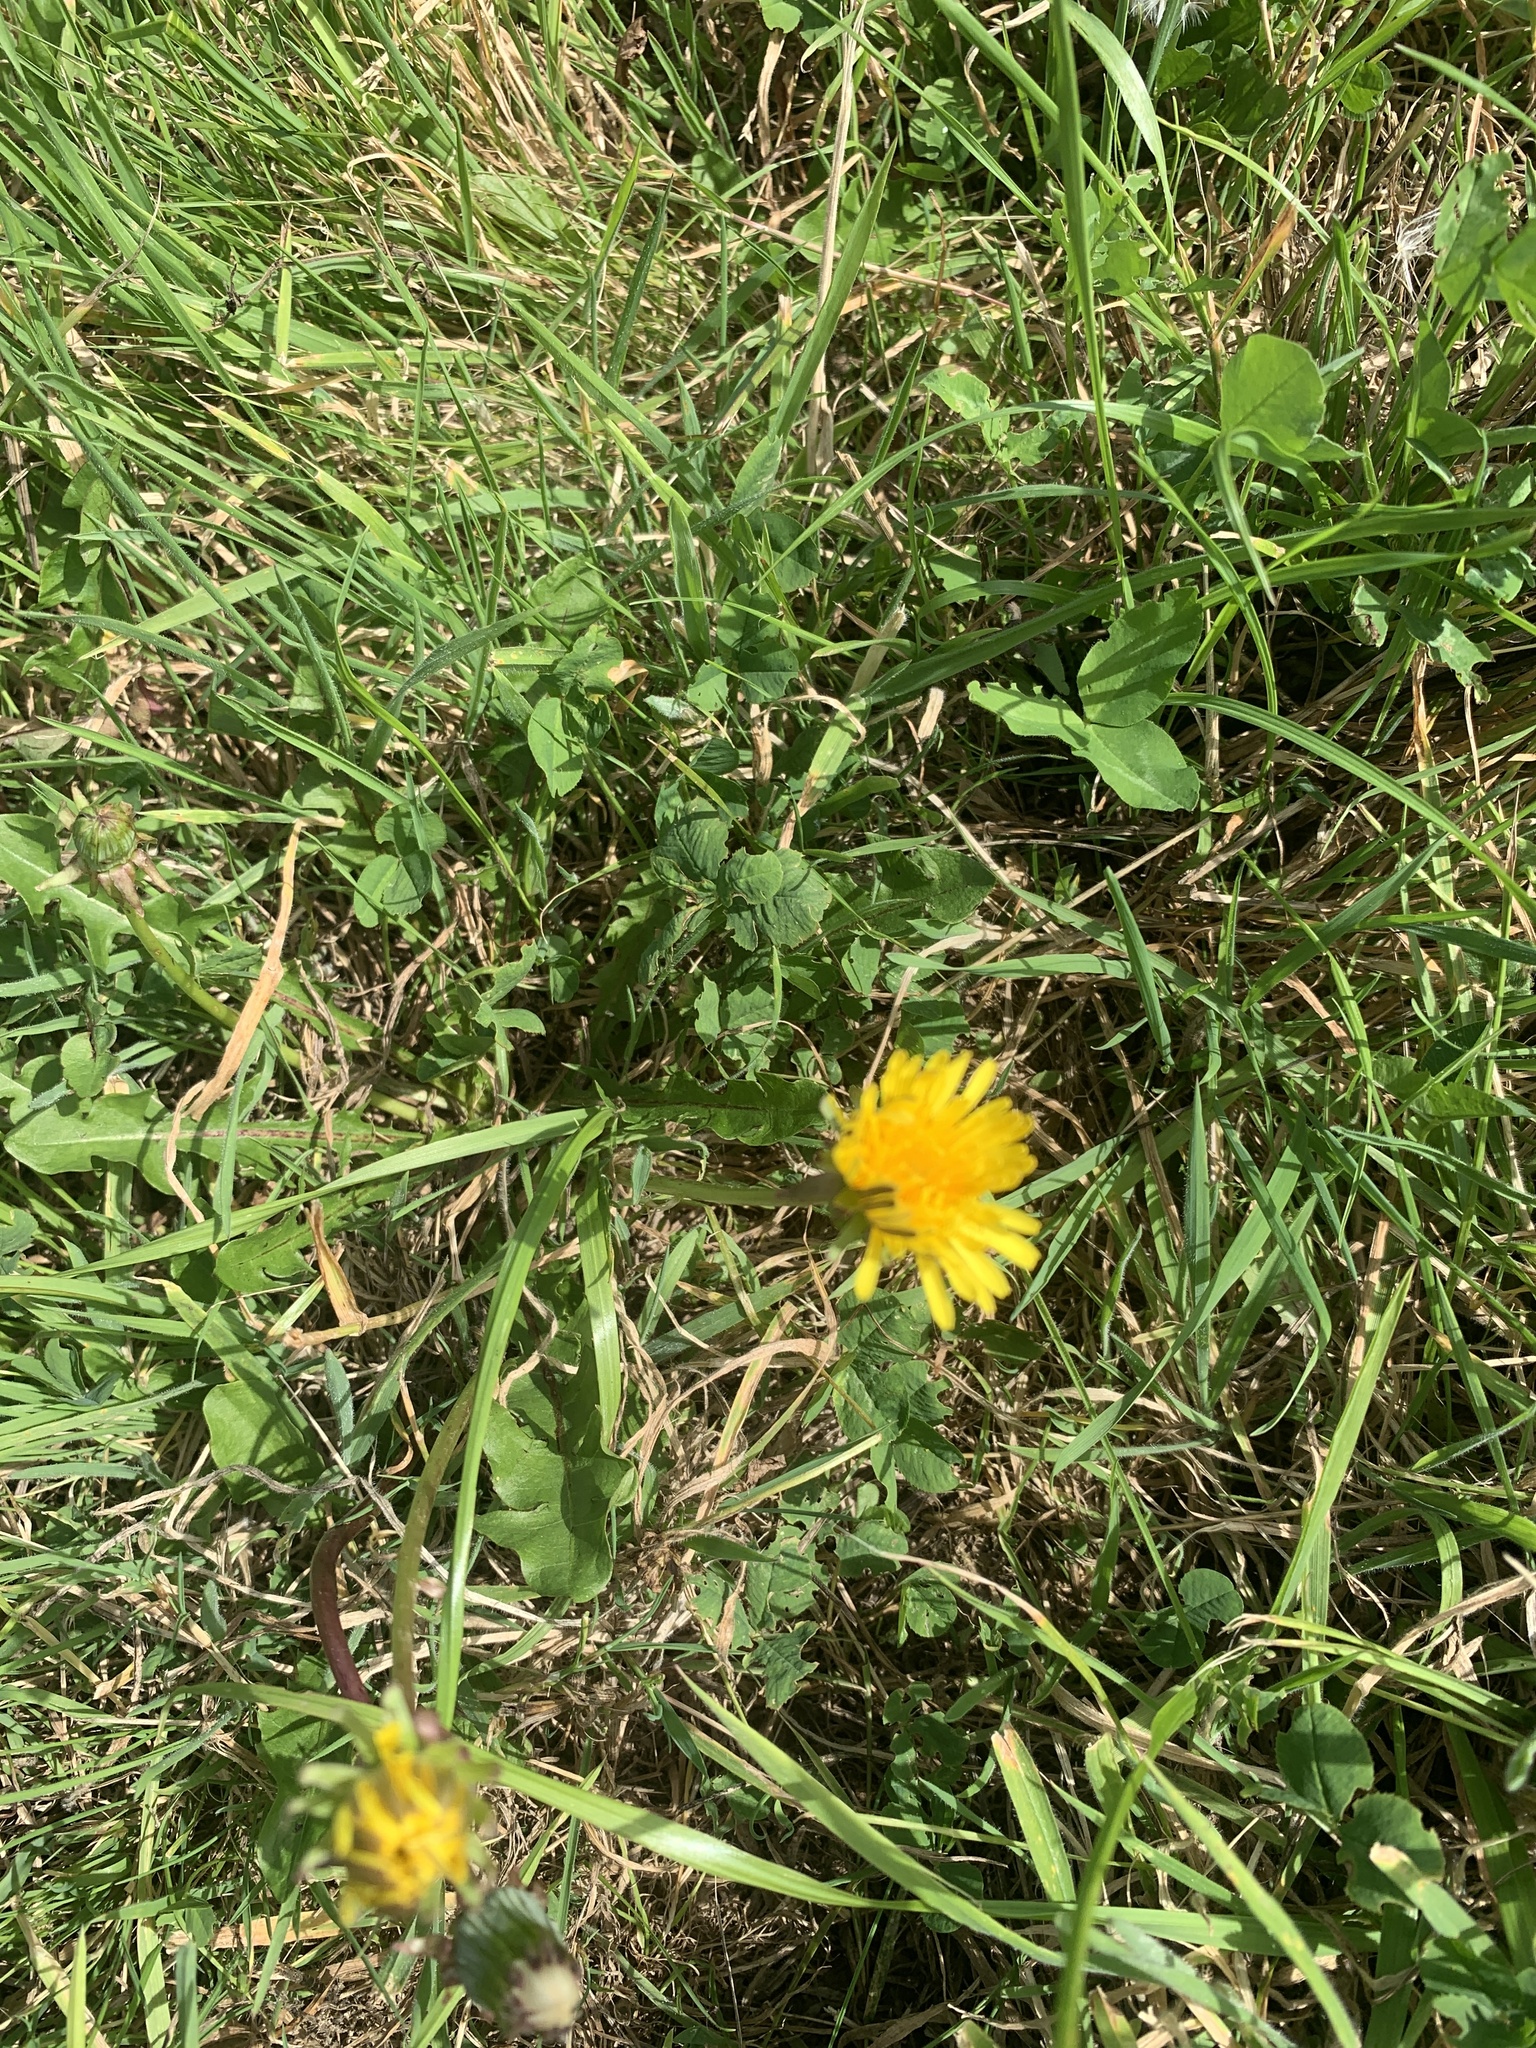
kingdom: Plantae
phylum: Tracheophyta
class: Magnoliopsida
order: Asterales
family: Asteraceae
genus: Taraxacum
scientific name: Taraxacum officinale
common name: Common dandelion
